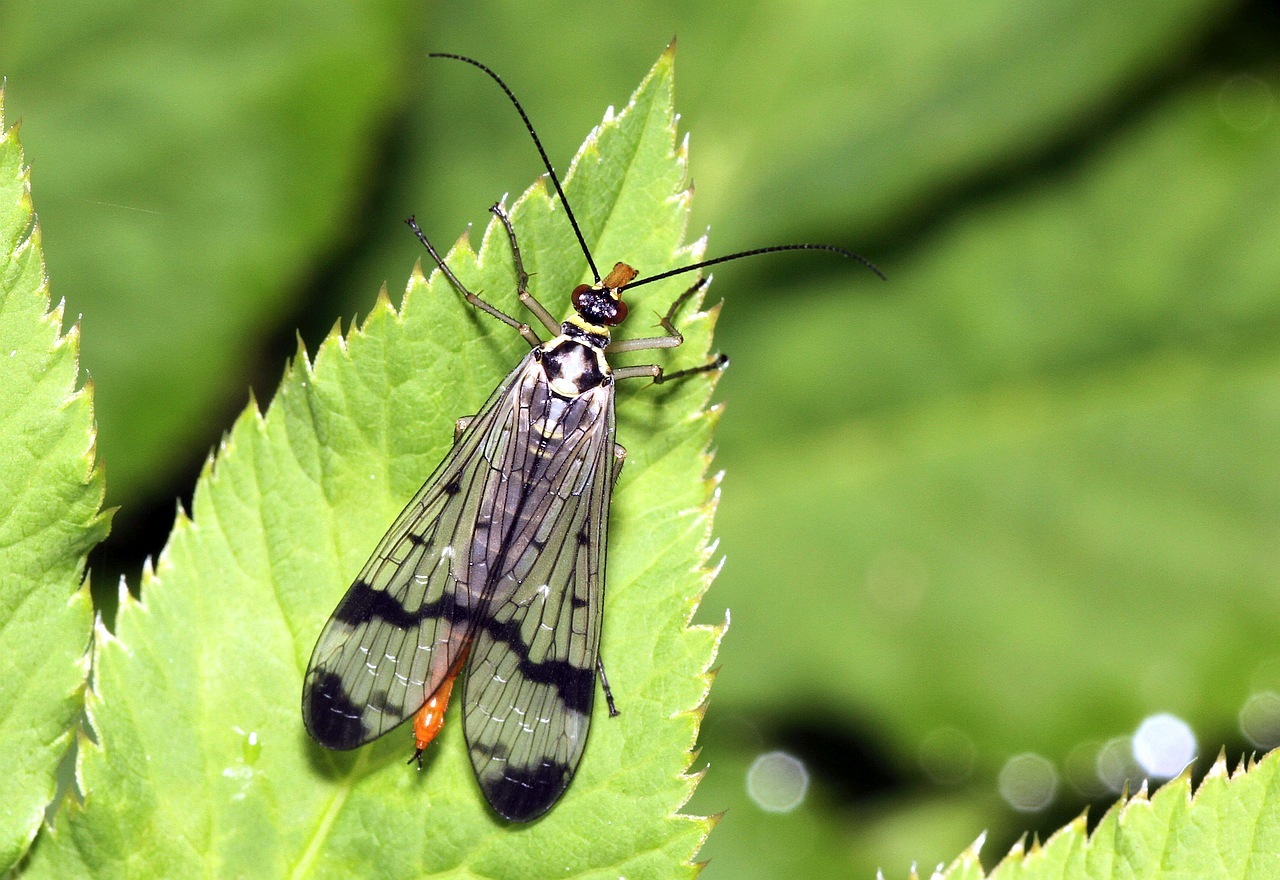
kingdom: Animalia
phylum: Arthropoda
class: Insecta
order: Mecoptera
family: Panorpidae
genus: Panorpa
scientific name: Panorpa communis
